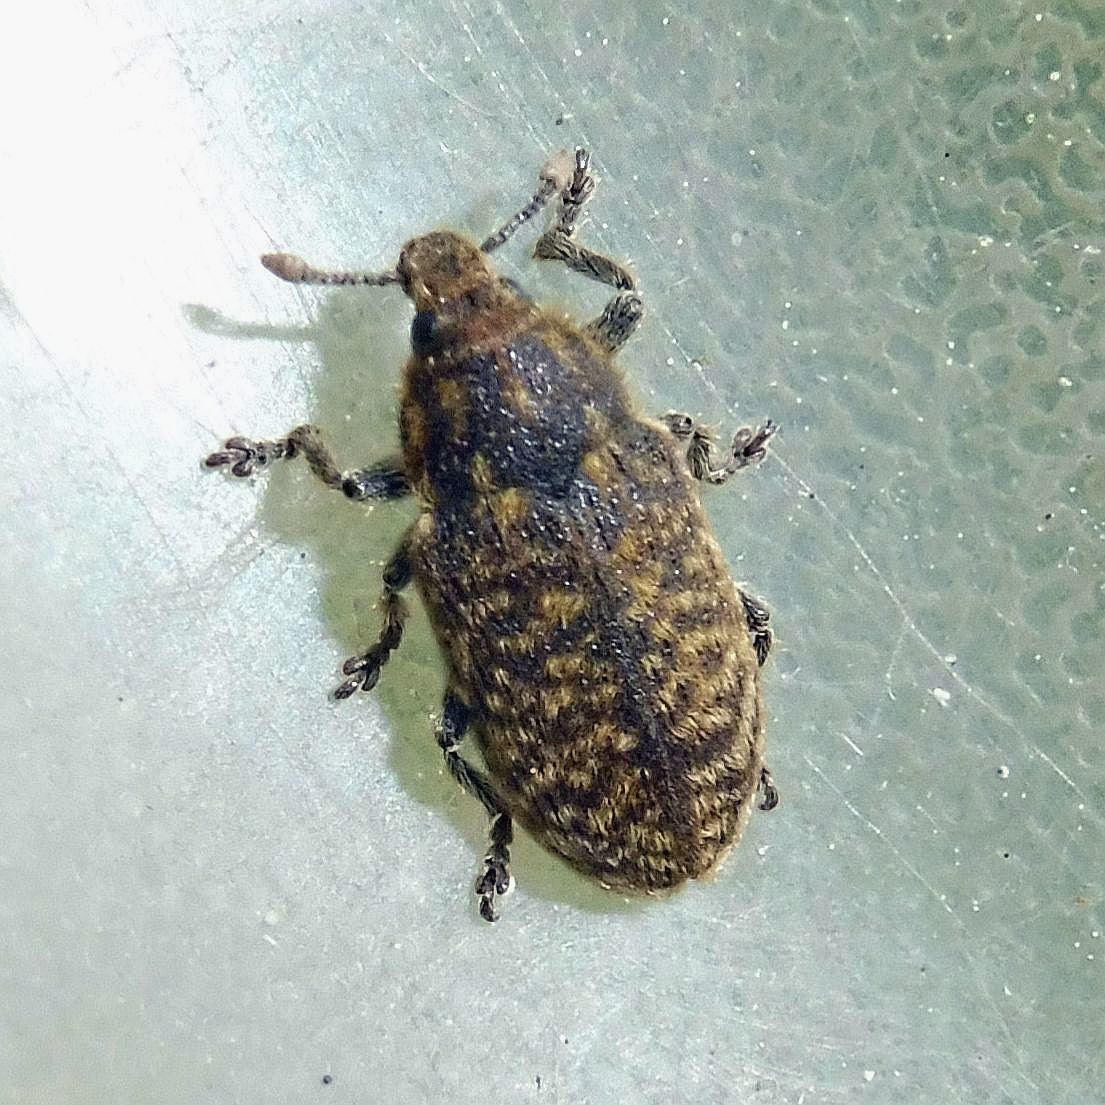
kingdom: Animalia
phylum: Arthropoda
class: Insecta
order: Coleoptera
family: Curculionidae
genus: Rhinocyllus
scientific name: Rhinocyllus conicus
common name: Weevil
